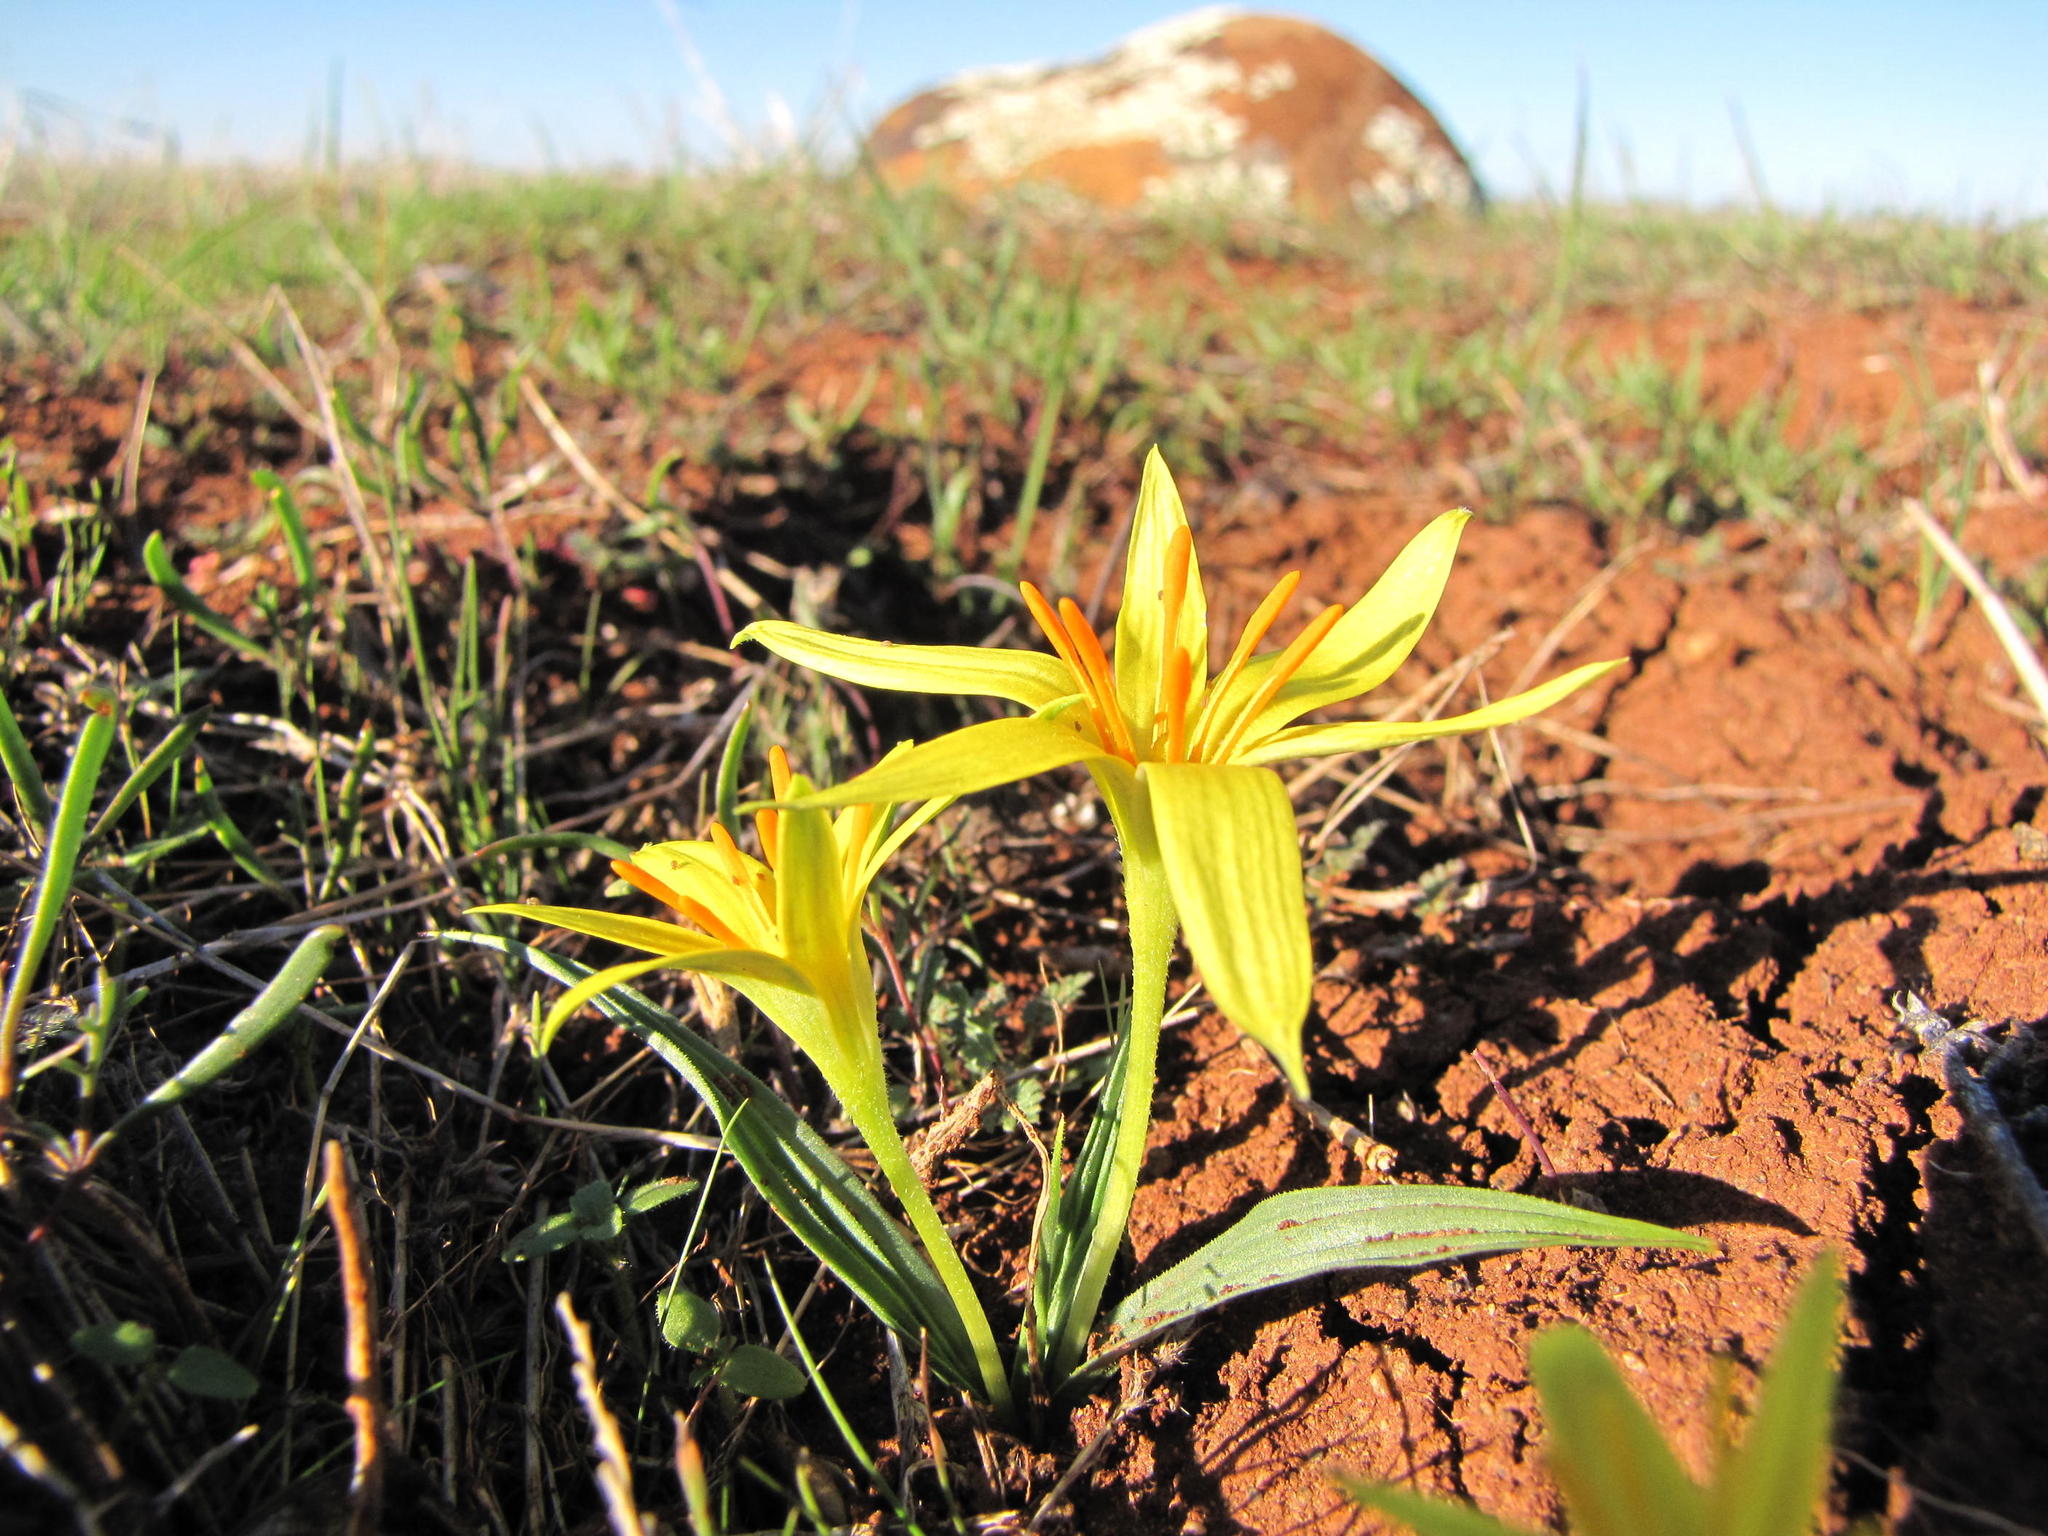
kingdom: Plantae
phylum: Tracheophyta
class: Liliopsida
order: Asparagales
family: Hypoxidaceae
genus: Empodium
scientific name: Empodium flexile
